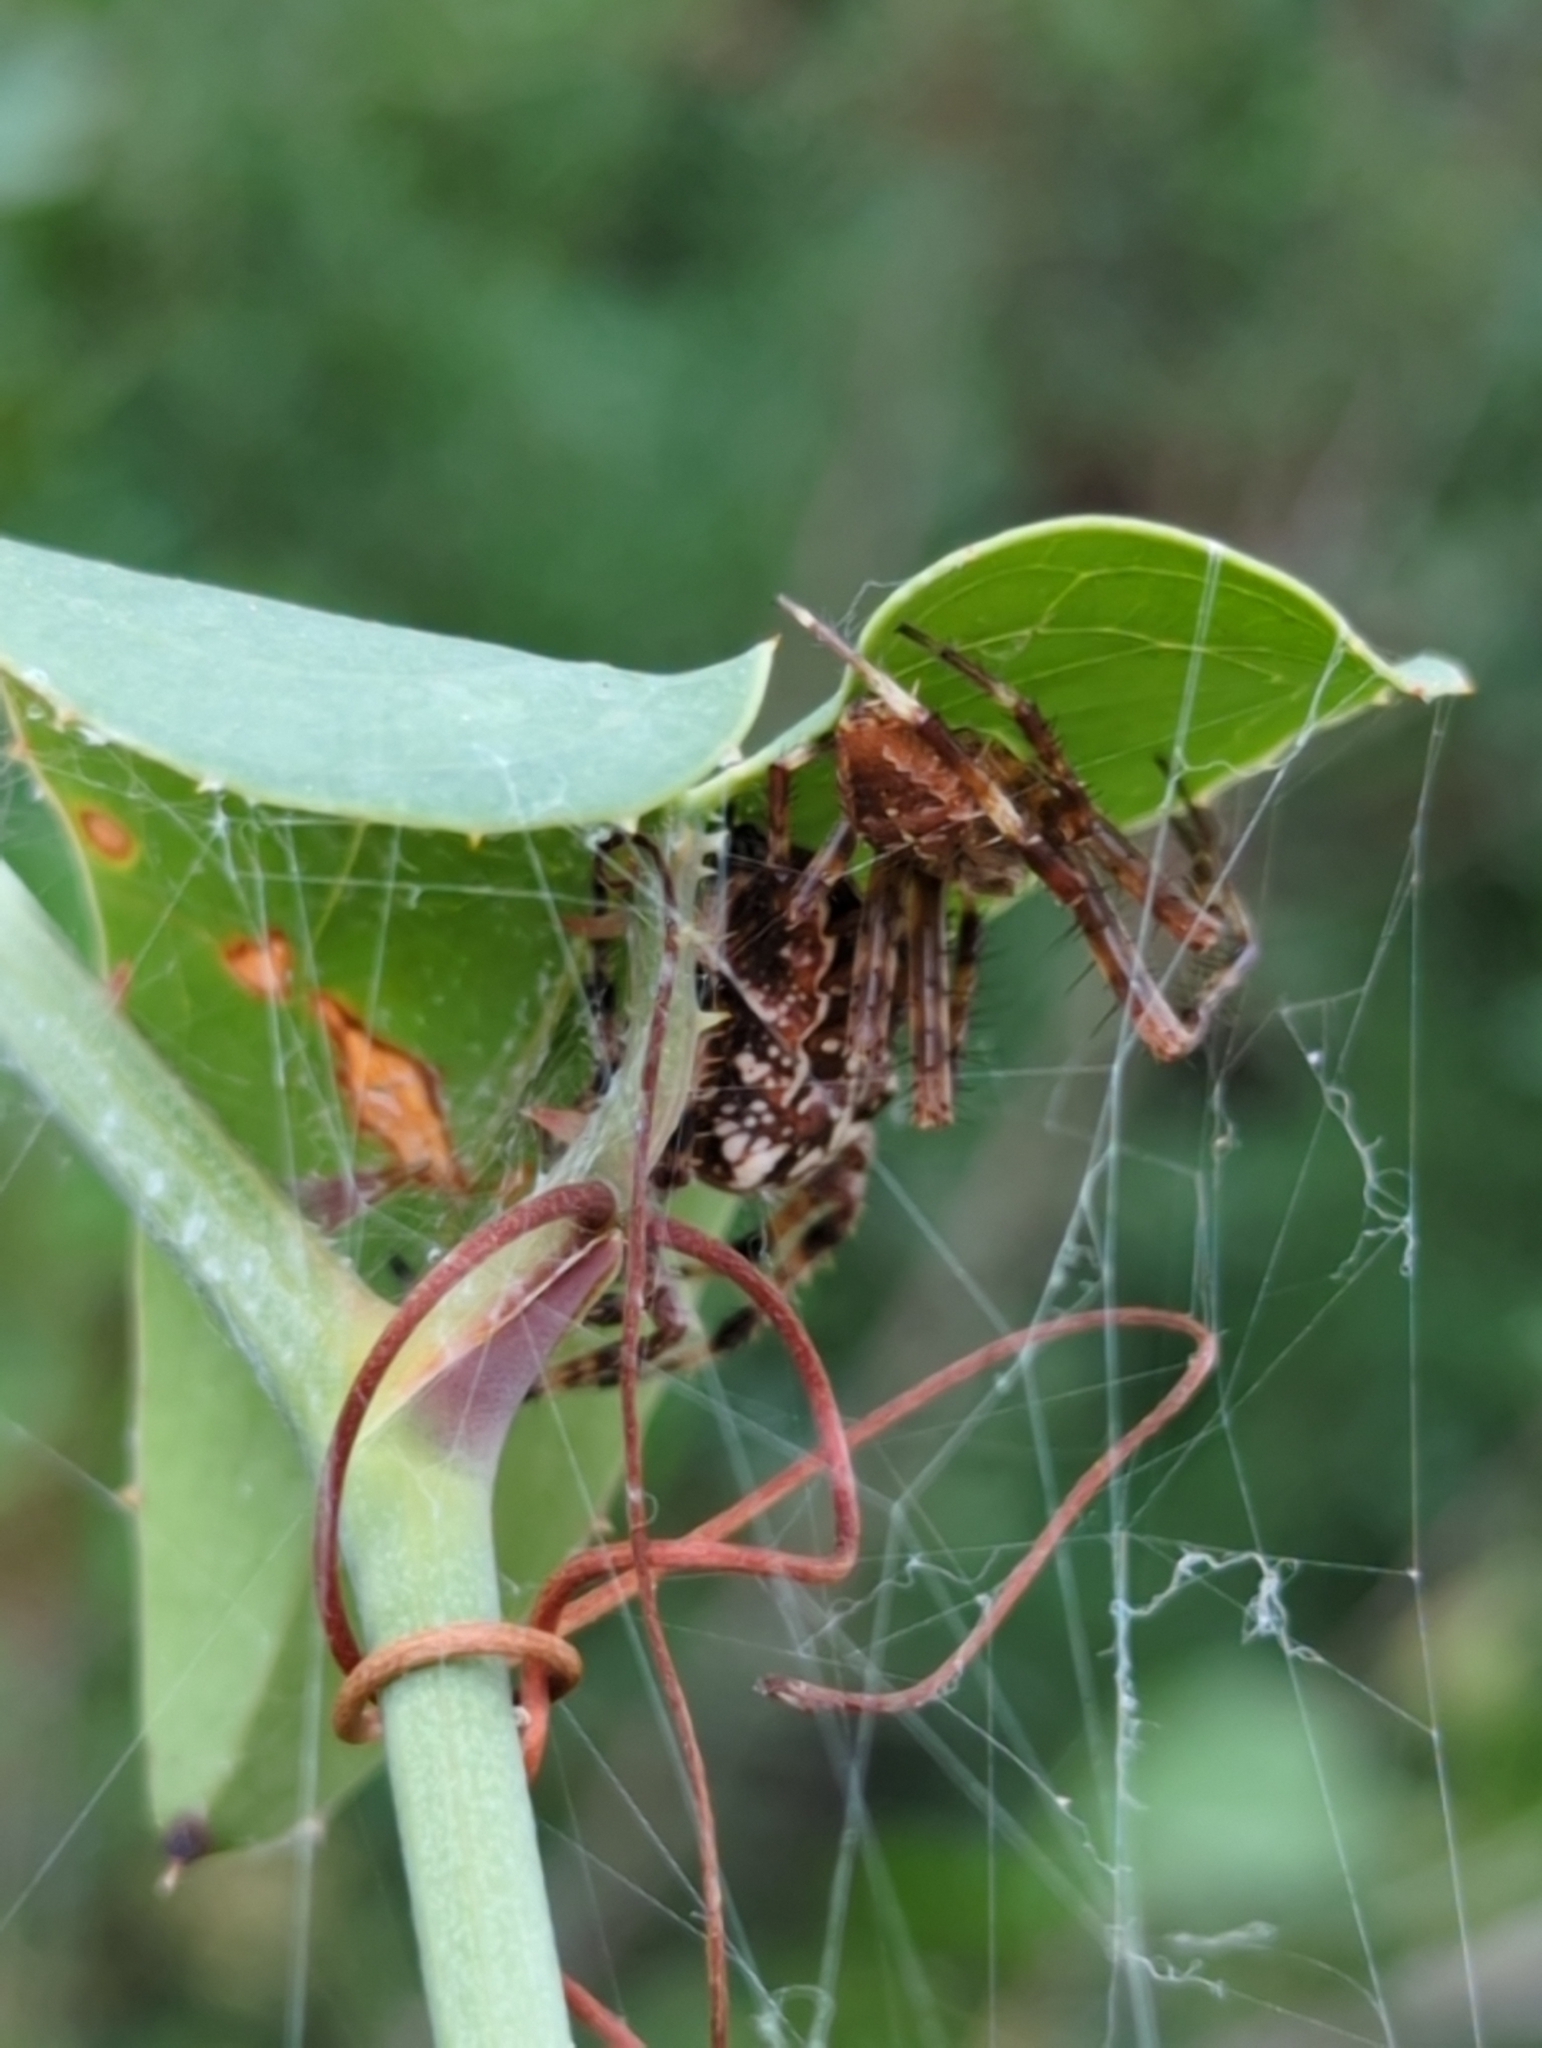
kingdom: Animalia
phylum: Arthropoda
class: Arachnida
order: Araneae
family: Araneidae
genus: Araneus
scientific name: Araneus diadematus
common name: Cross orbweaver
